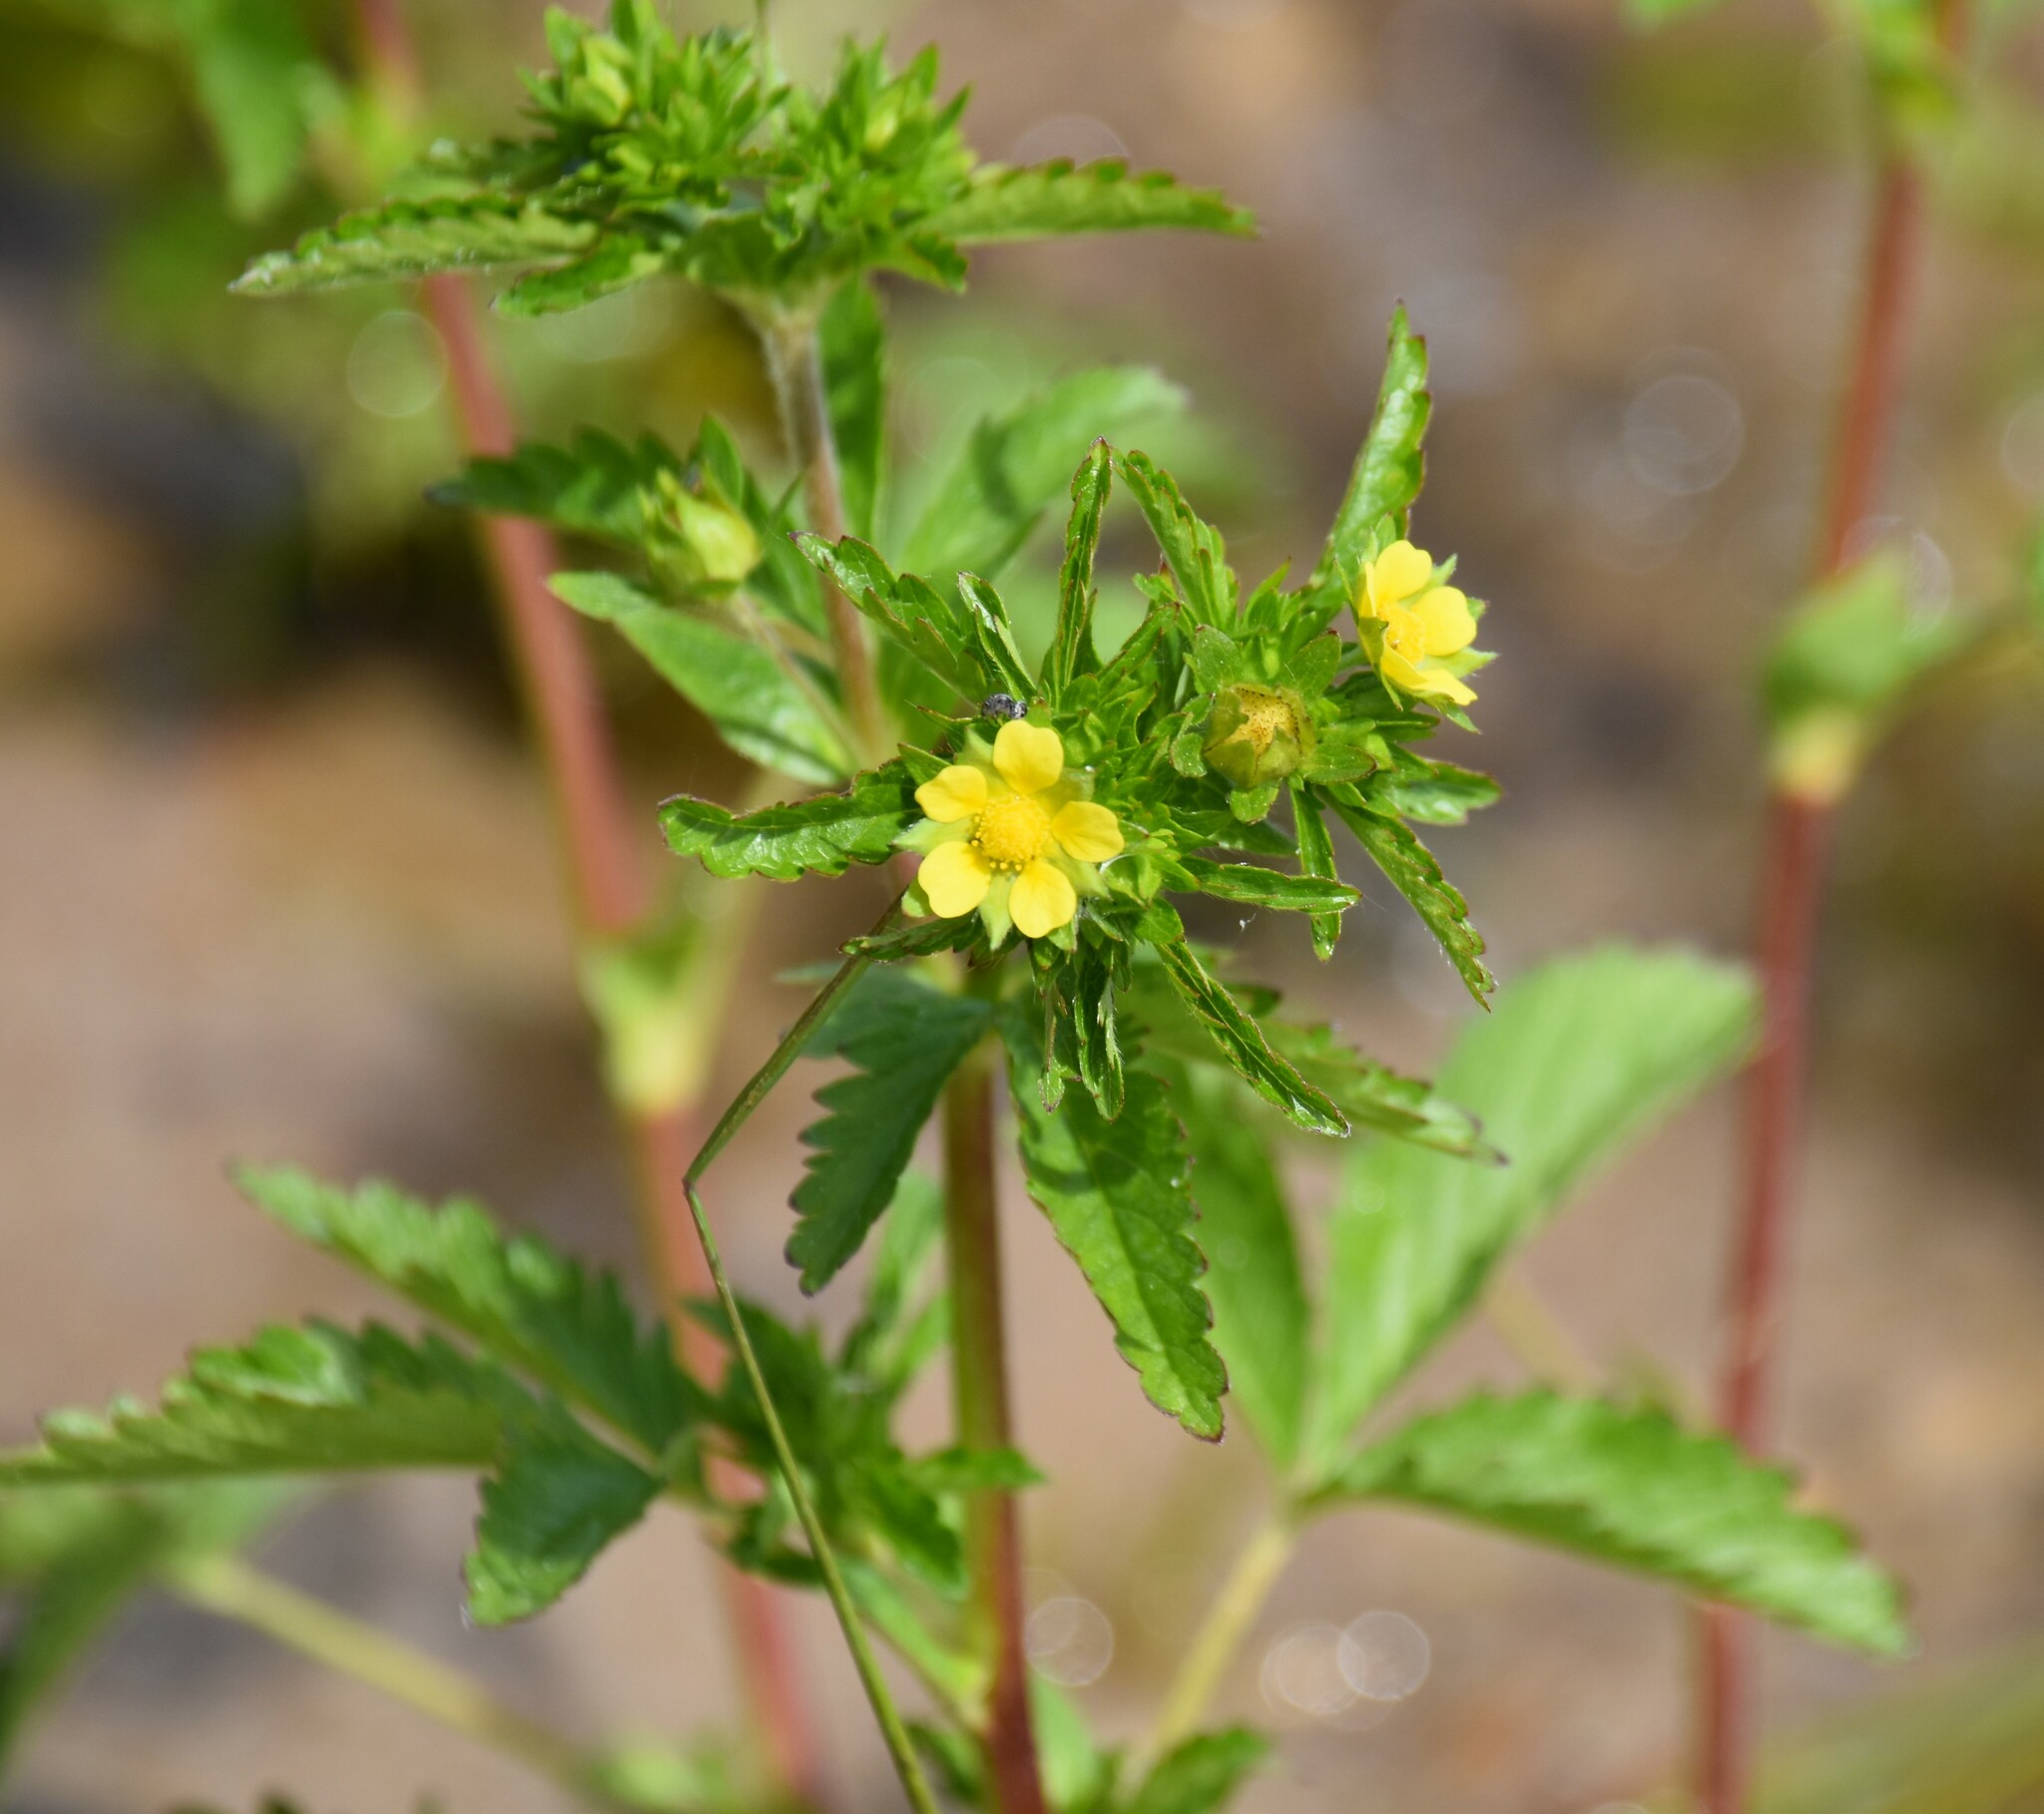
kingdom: Plantae
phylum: Tracheophyta
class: Magnoliopsida
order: Rosales
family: Rosaceae
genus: Potentilla
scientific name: Potentilla norvegica
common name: Ternate-leaved cinquefoil
